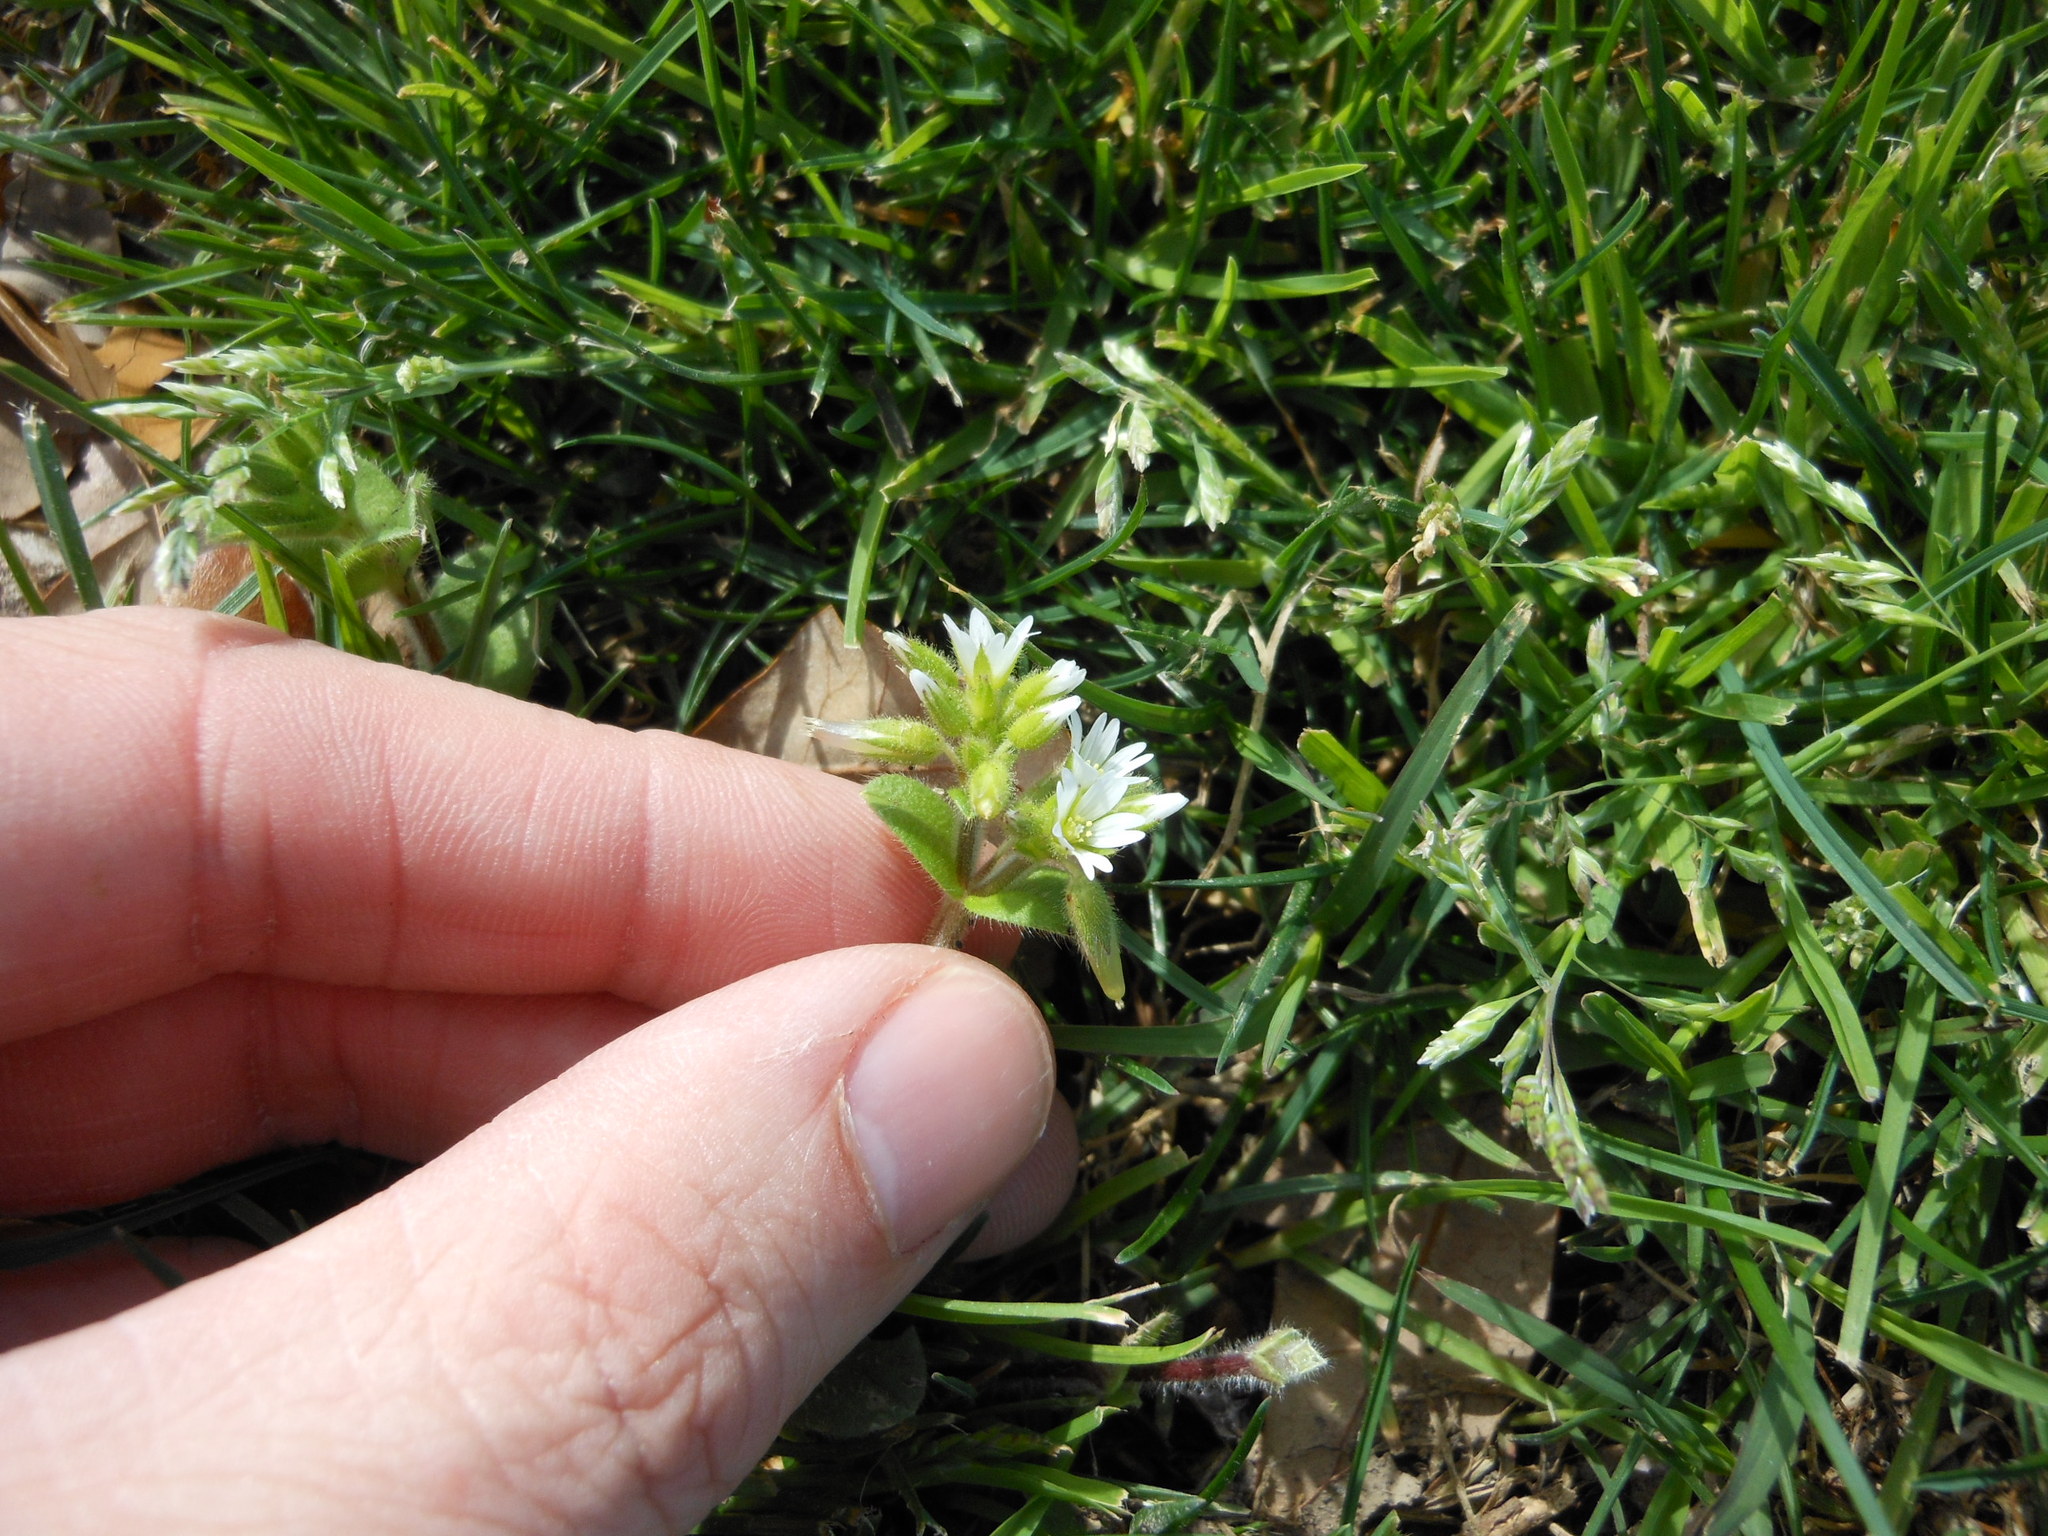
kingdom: Plantae
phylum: Tracheophyta
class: Magnoliopsida
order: Caryophyllales
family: Caryophyllaceae
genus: Stellaria
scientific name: Stellaria media
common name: Common chickweed
